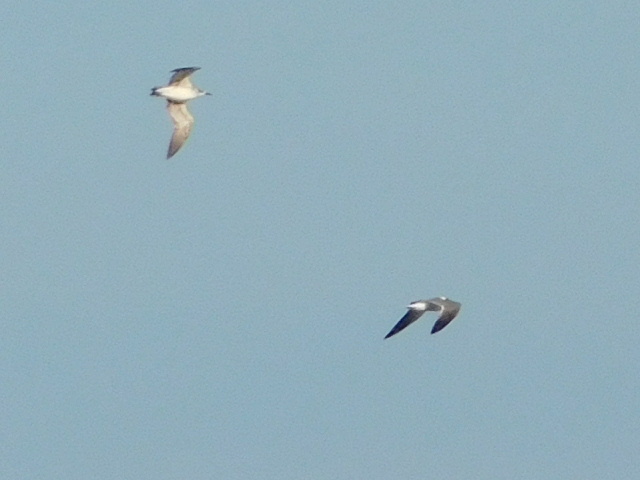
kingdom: Animalia
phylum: Chordata
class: Aves
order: Charadriiformes
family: Laridae
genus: Leucophaeus
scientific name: Leucophaeus atricilla
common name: Laughing gull
